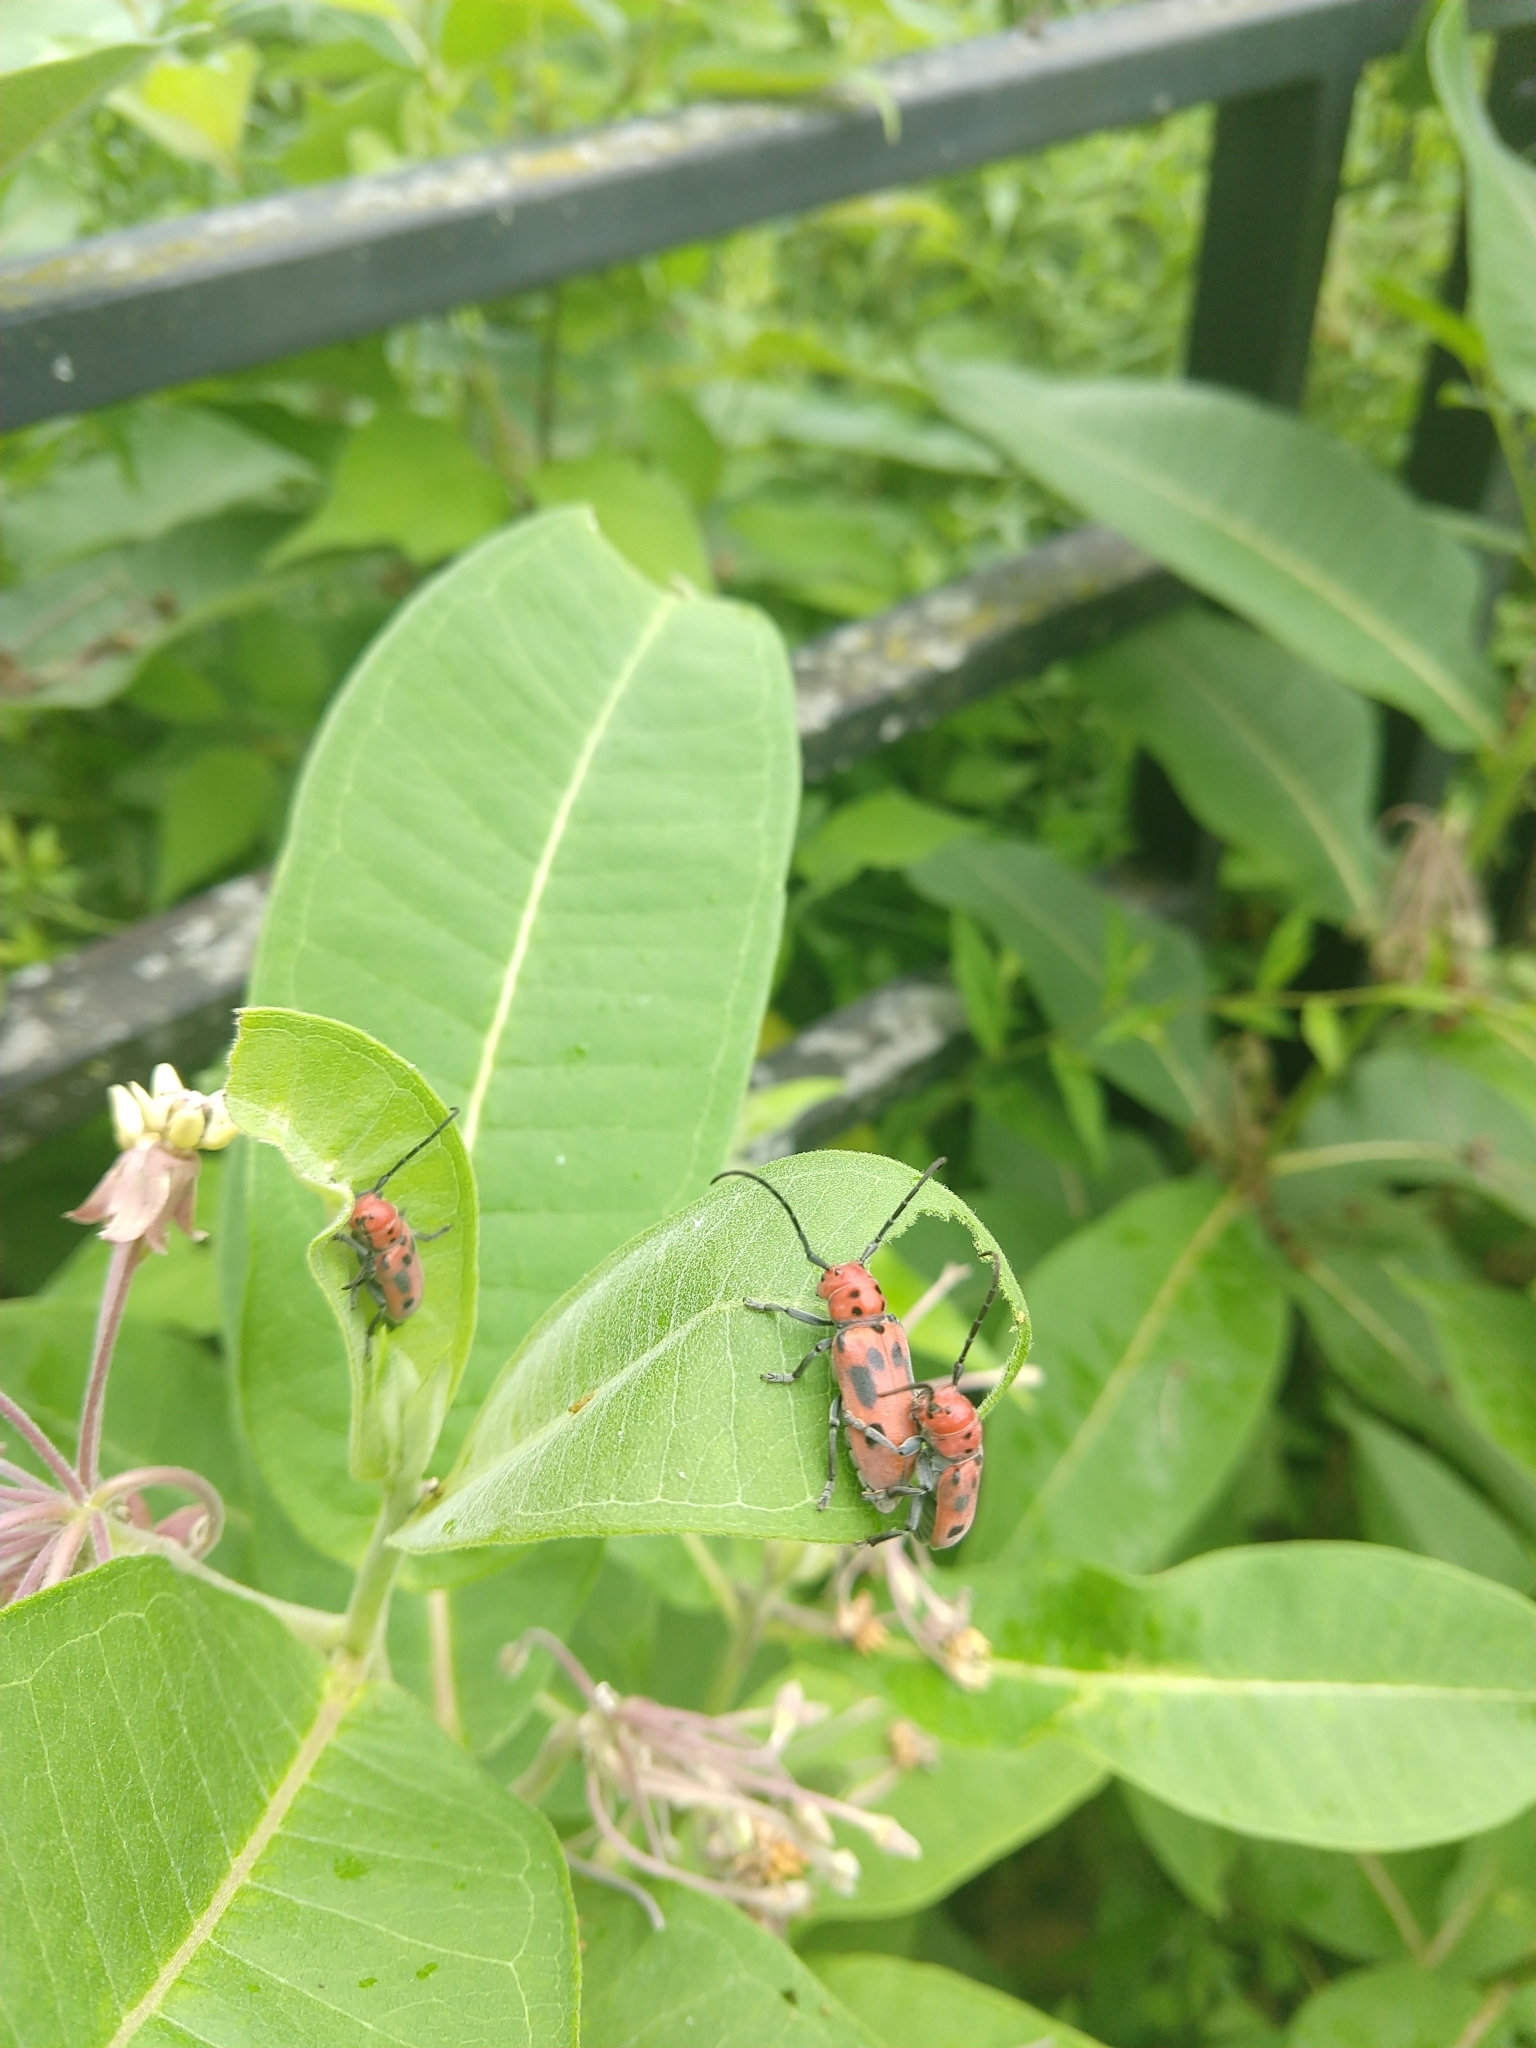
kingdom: Animalia
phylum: Arthropoda
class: Insecta
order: Coleoptera
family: Cerambycidae
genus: Tetraopes
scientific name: Tetraopes tetrophthalmus
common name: Red milkweed beetle
